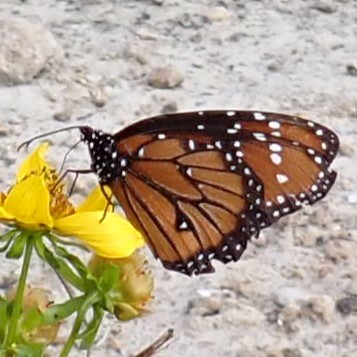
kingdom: Animalia
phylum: Arthropoda
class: Insecta
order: Lepidoptera
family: Nymphalidae
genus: Danaus
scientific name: Danaus gilippus
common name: Queen
